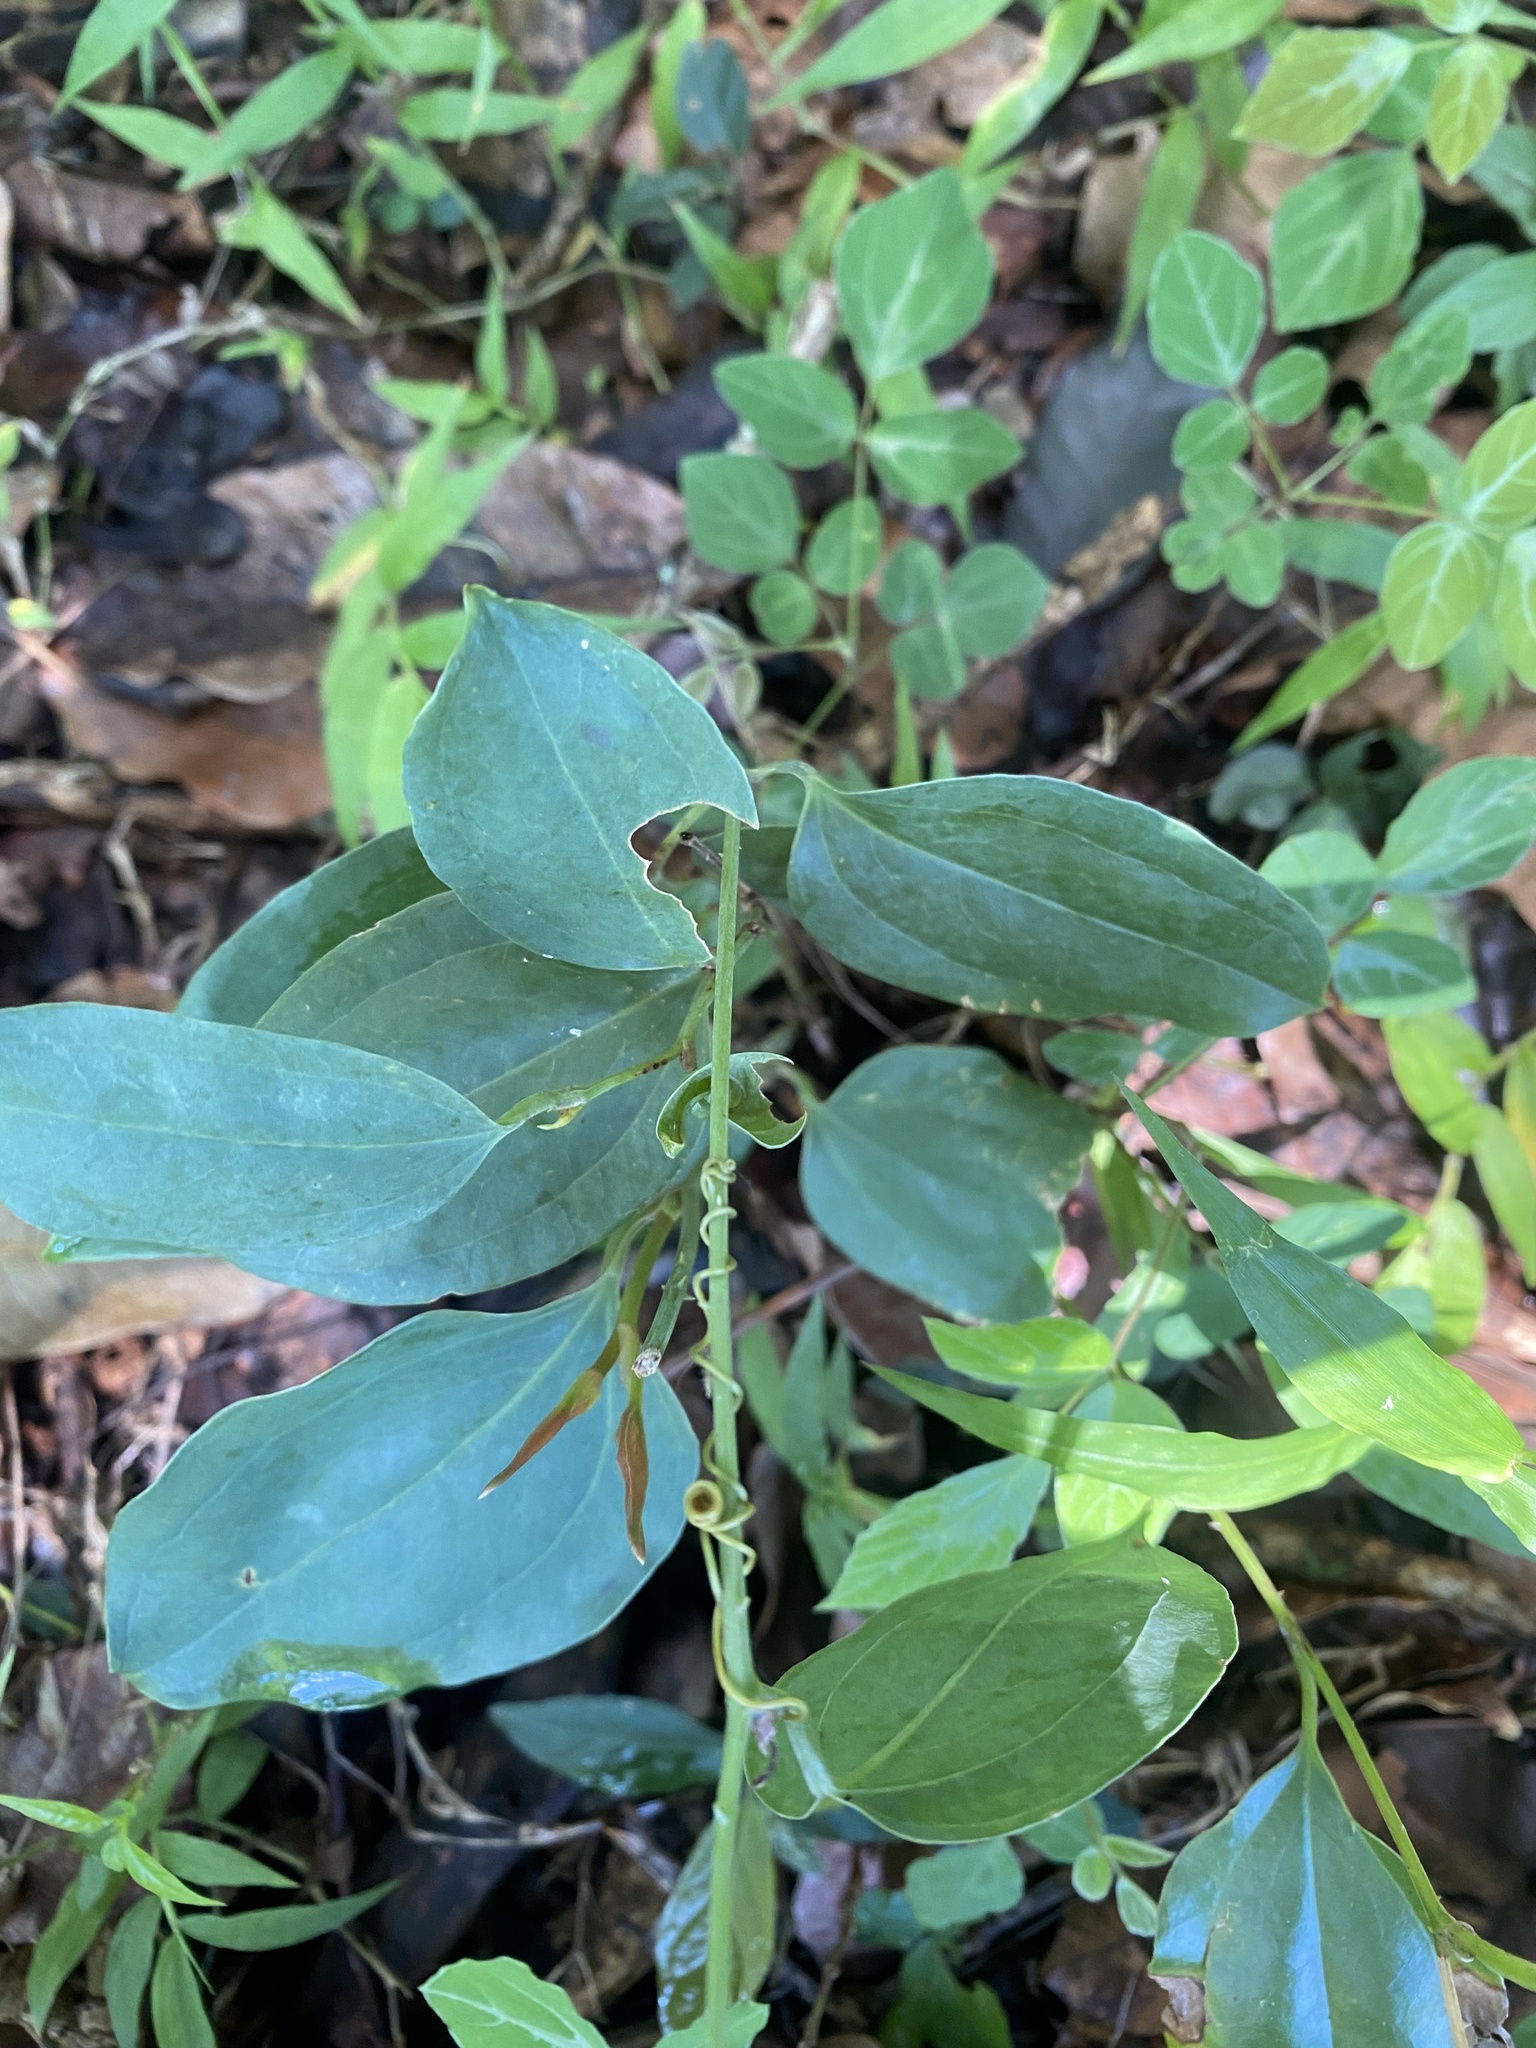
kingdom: Plantae
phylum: Tracheophyta
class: Liliopsida
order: Liliales
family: Smilacaceae
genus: Smilax
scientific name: Smilax anceps
